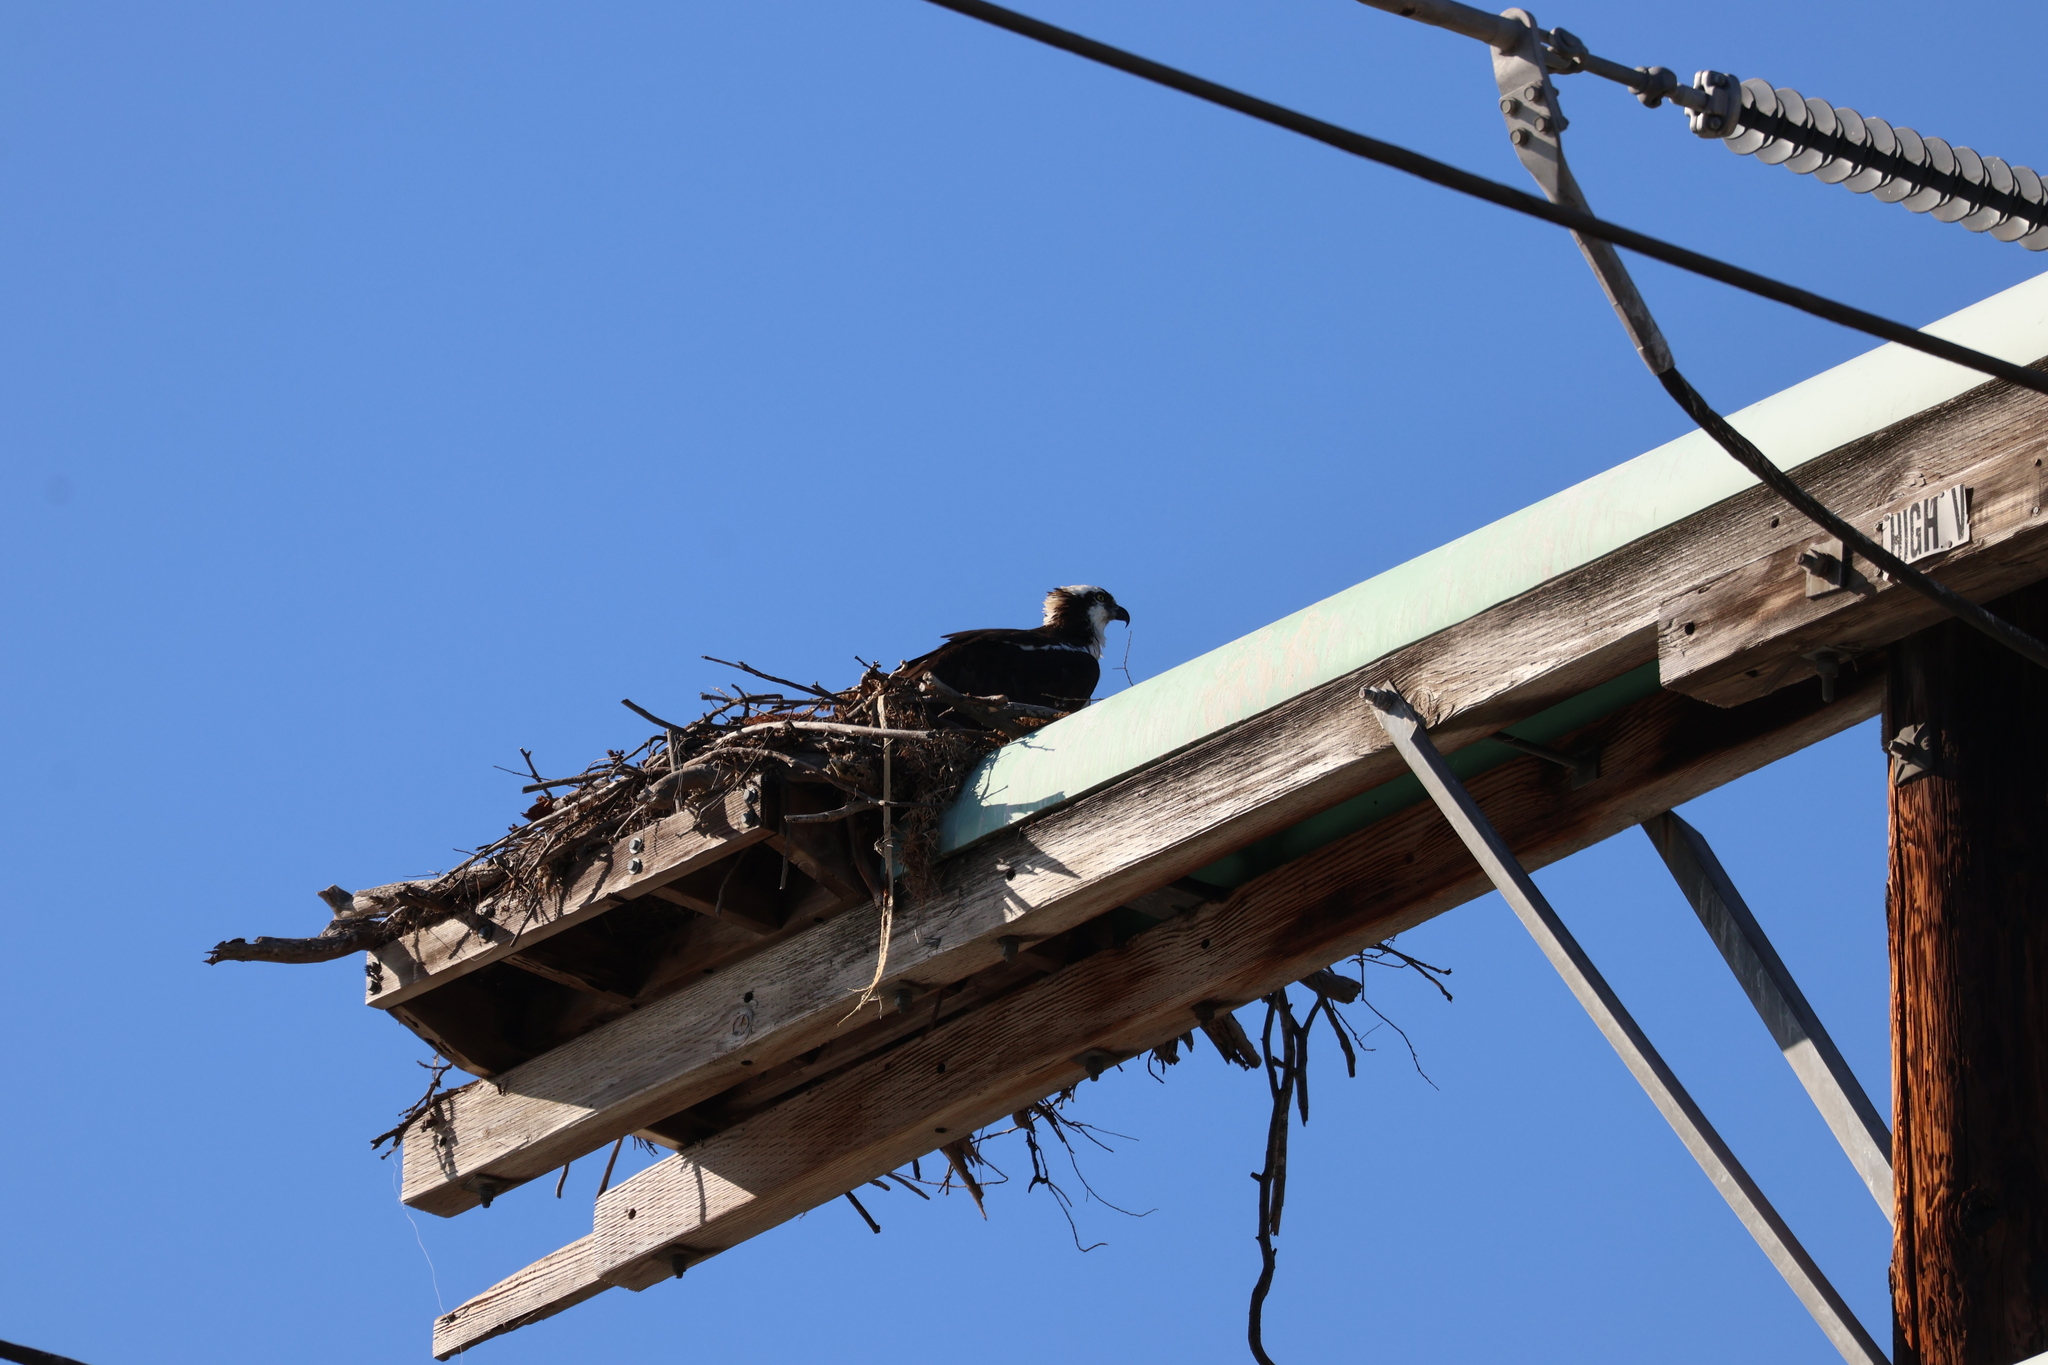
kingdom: Animalia
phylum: Chordata
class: Aves
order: Accipitriformes
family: Pandionidae
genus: Pandion
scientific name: Pandion haliaetus
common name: Osprey
